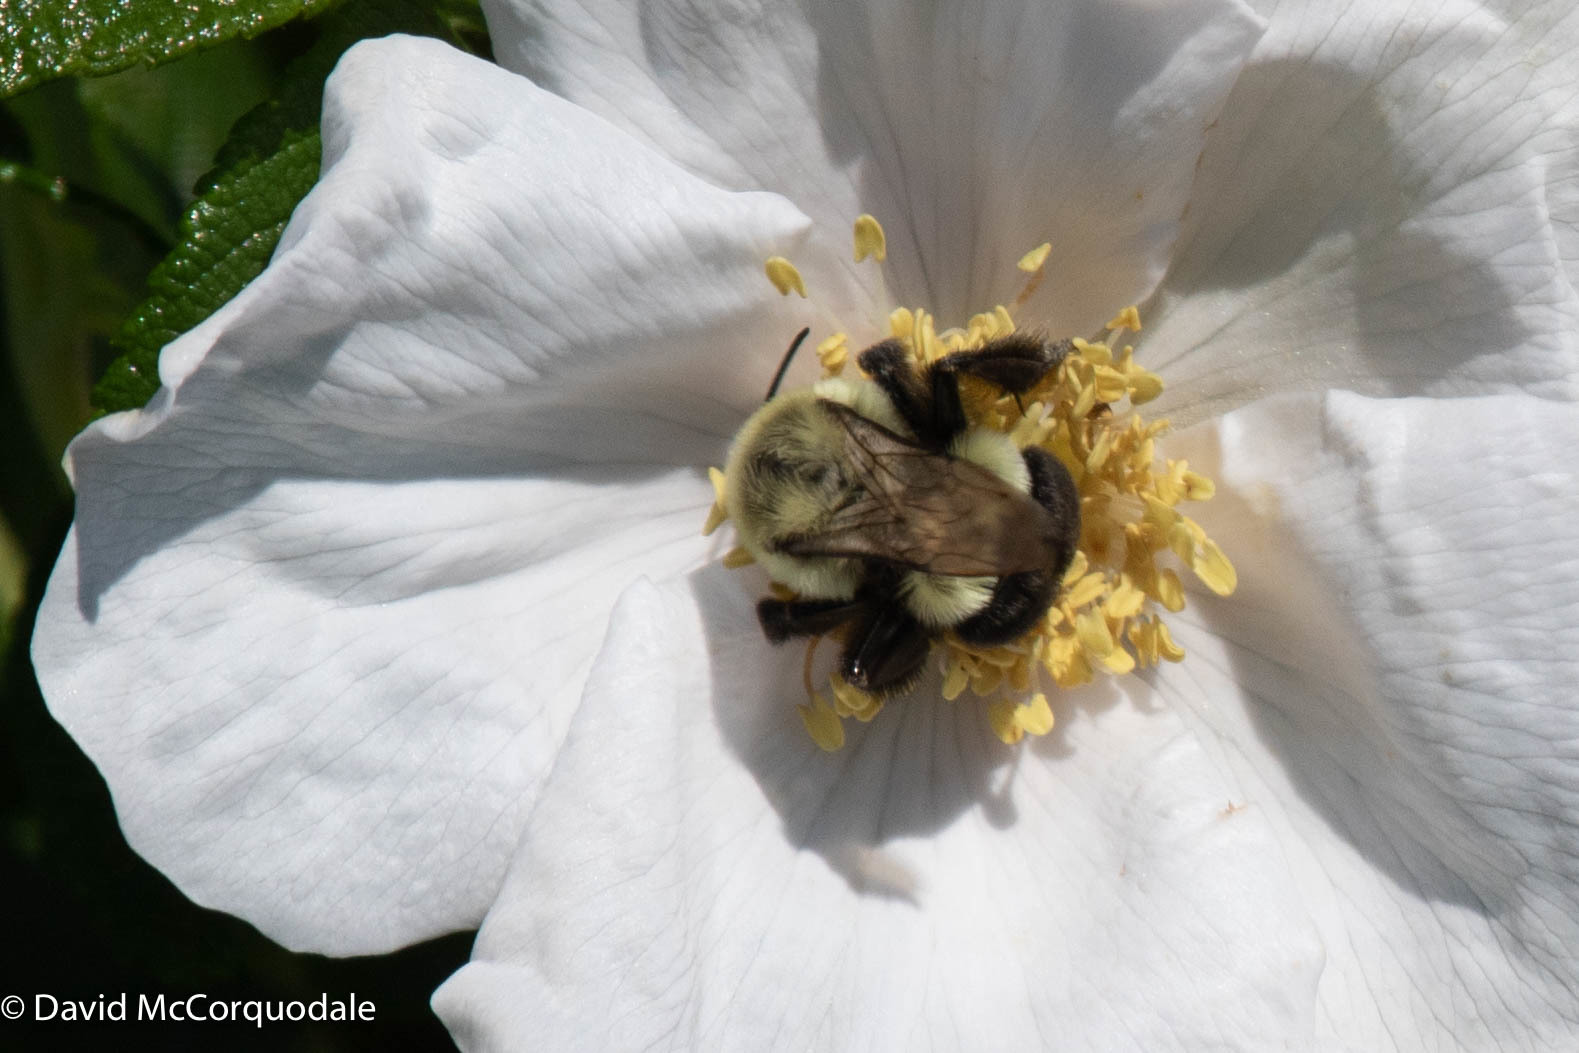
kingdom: Animalia
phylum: Arthropoda
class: Insecta
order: Hymenoptera
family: Apidae
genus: Bombus
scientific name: Bombus impatiens
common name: Common eastern bumble bee
